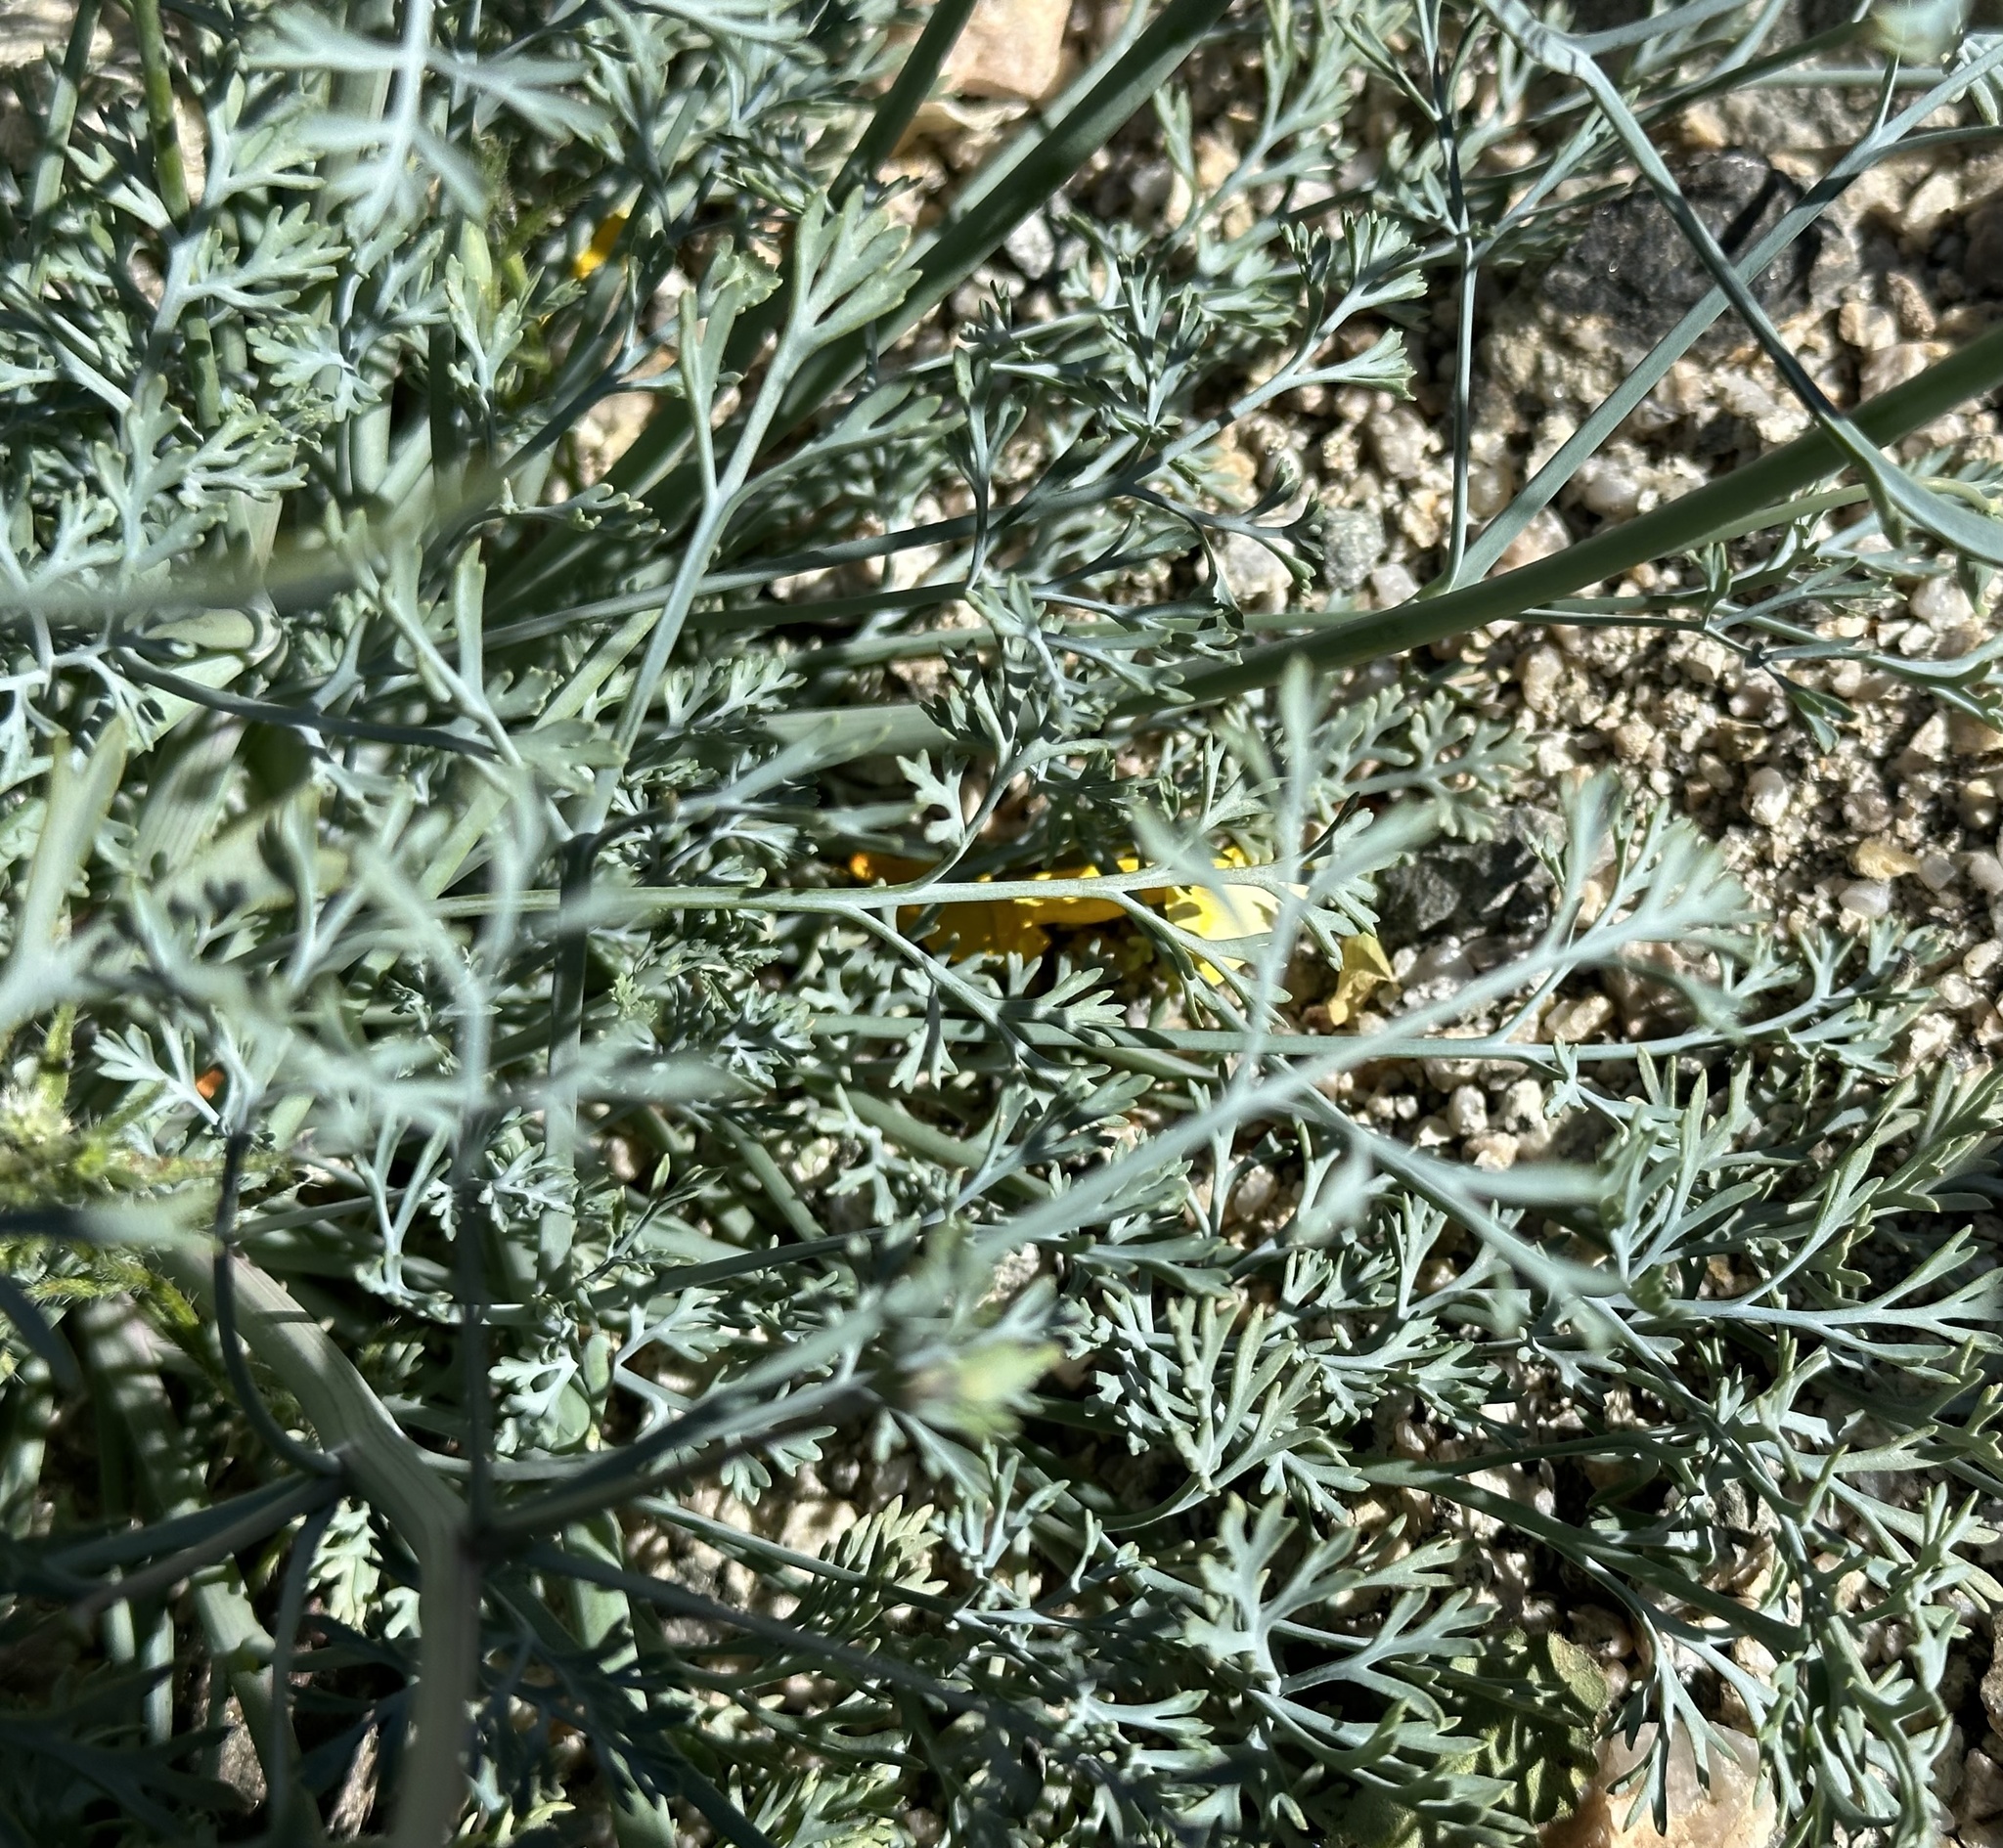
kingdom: Plantae
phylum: Tracheophyta
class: Magnoliopsida
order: Ranunculales
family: Papaveraceae
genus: Eschscholzia
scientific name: Eschscholzia papastillii
